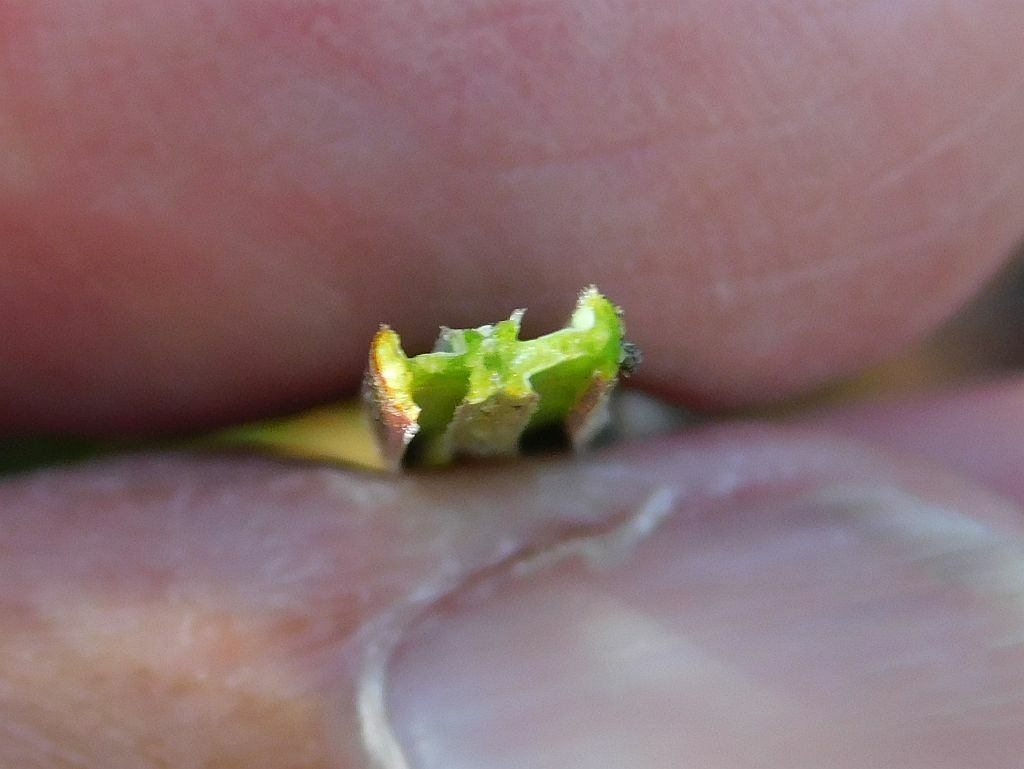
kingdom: Plantae
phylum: Tracheophyta
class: Liliopsida
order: Asparagales
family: Iridaceae
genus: Geissorhiza
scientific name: Geissorhiza schinzii
